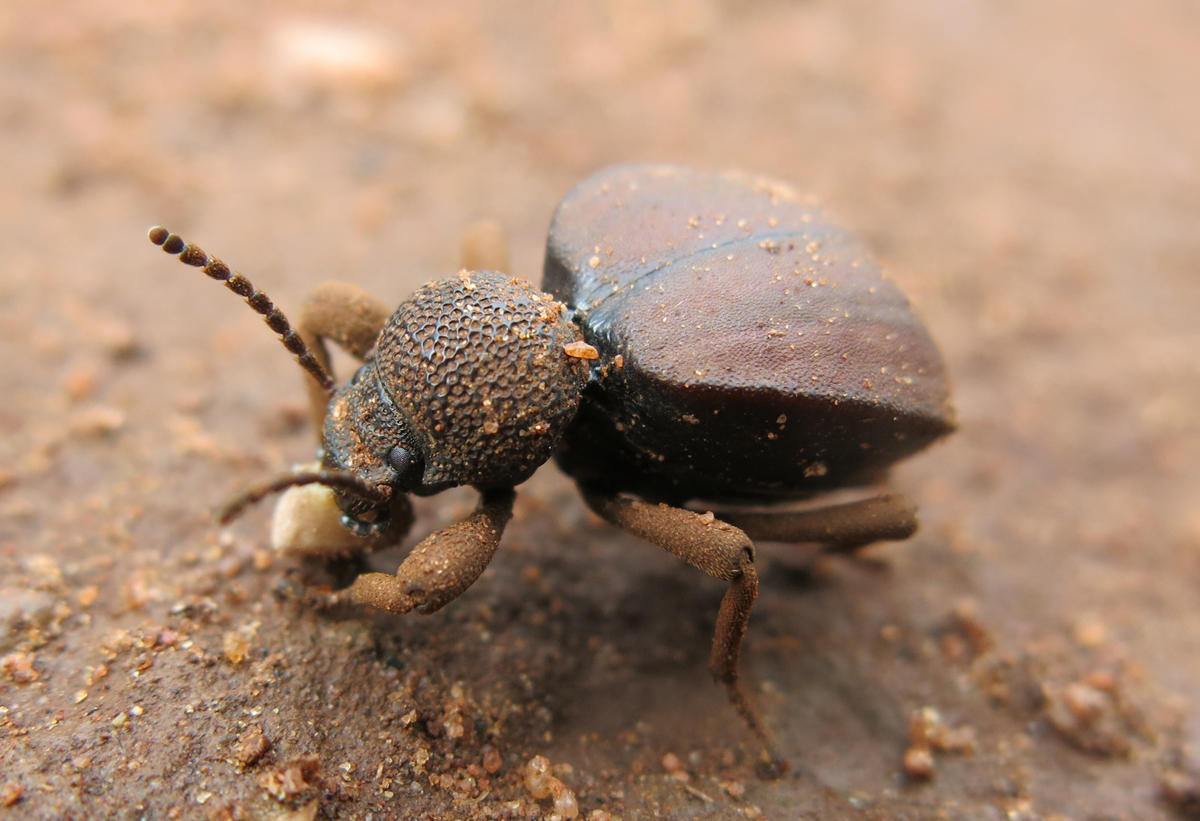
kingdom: Animalia
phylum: Arthropoda
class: Insecta
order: Coleoptera
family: Tenebrionidae
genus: Distretus
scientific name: Distretus
